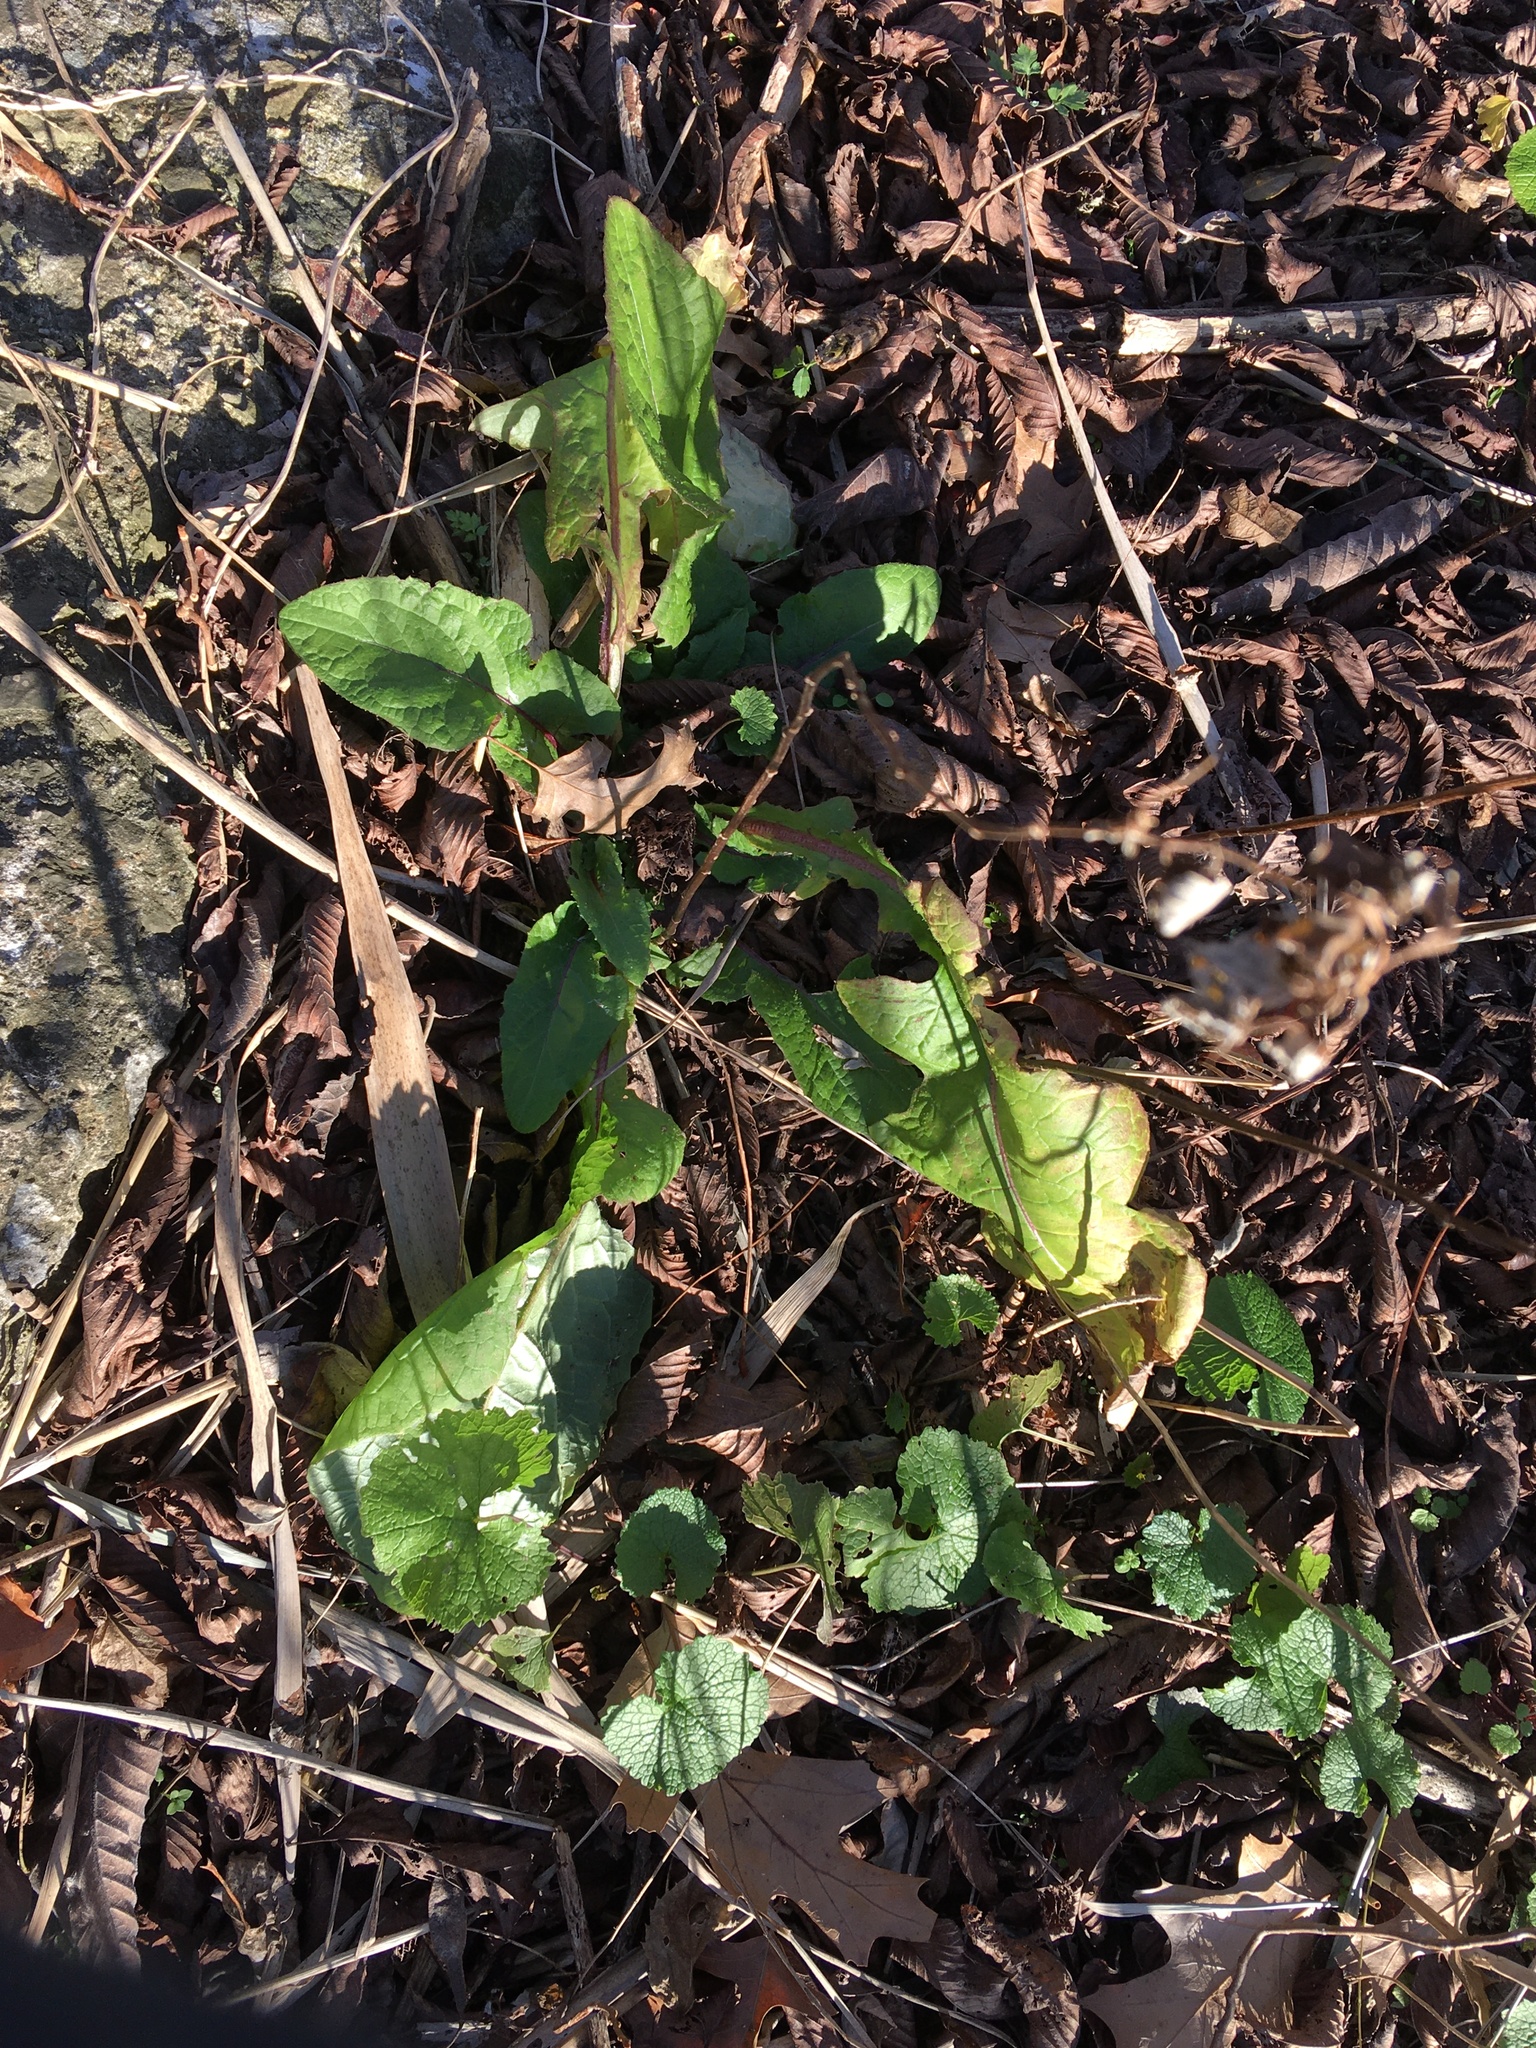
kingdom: Plantae
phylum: Tracheophyta
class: Magnoliopsida
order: Asterales
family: Asteraceae
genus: Taraxacum
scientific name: Taraxacum officinale
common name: Common dandelion
